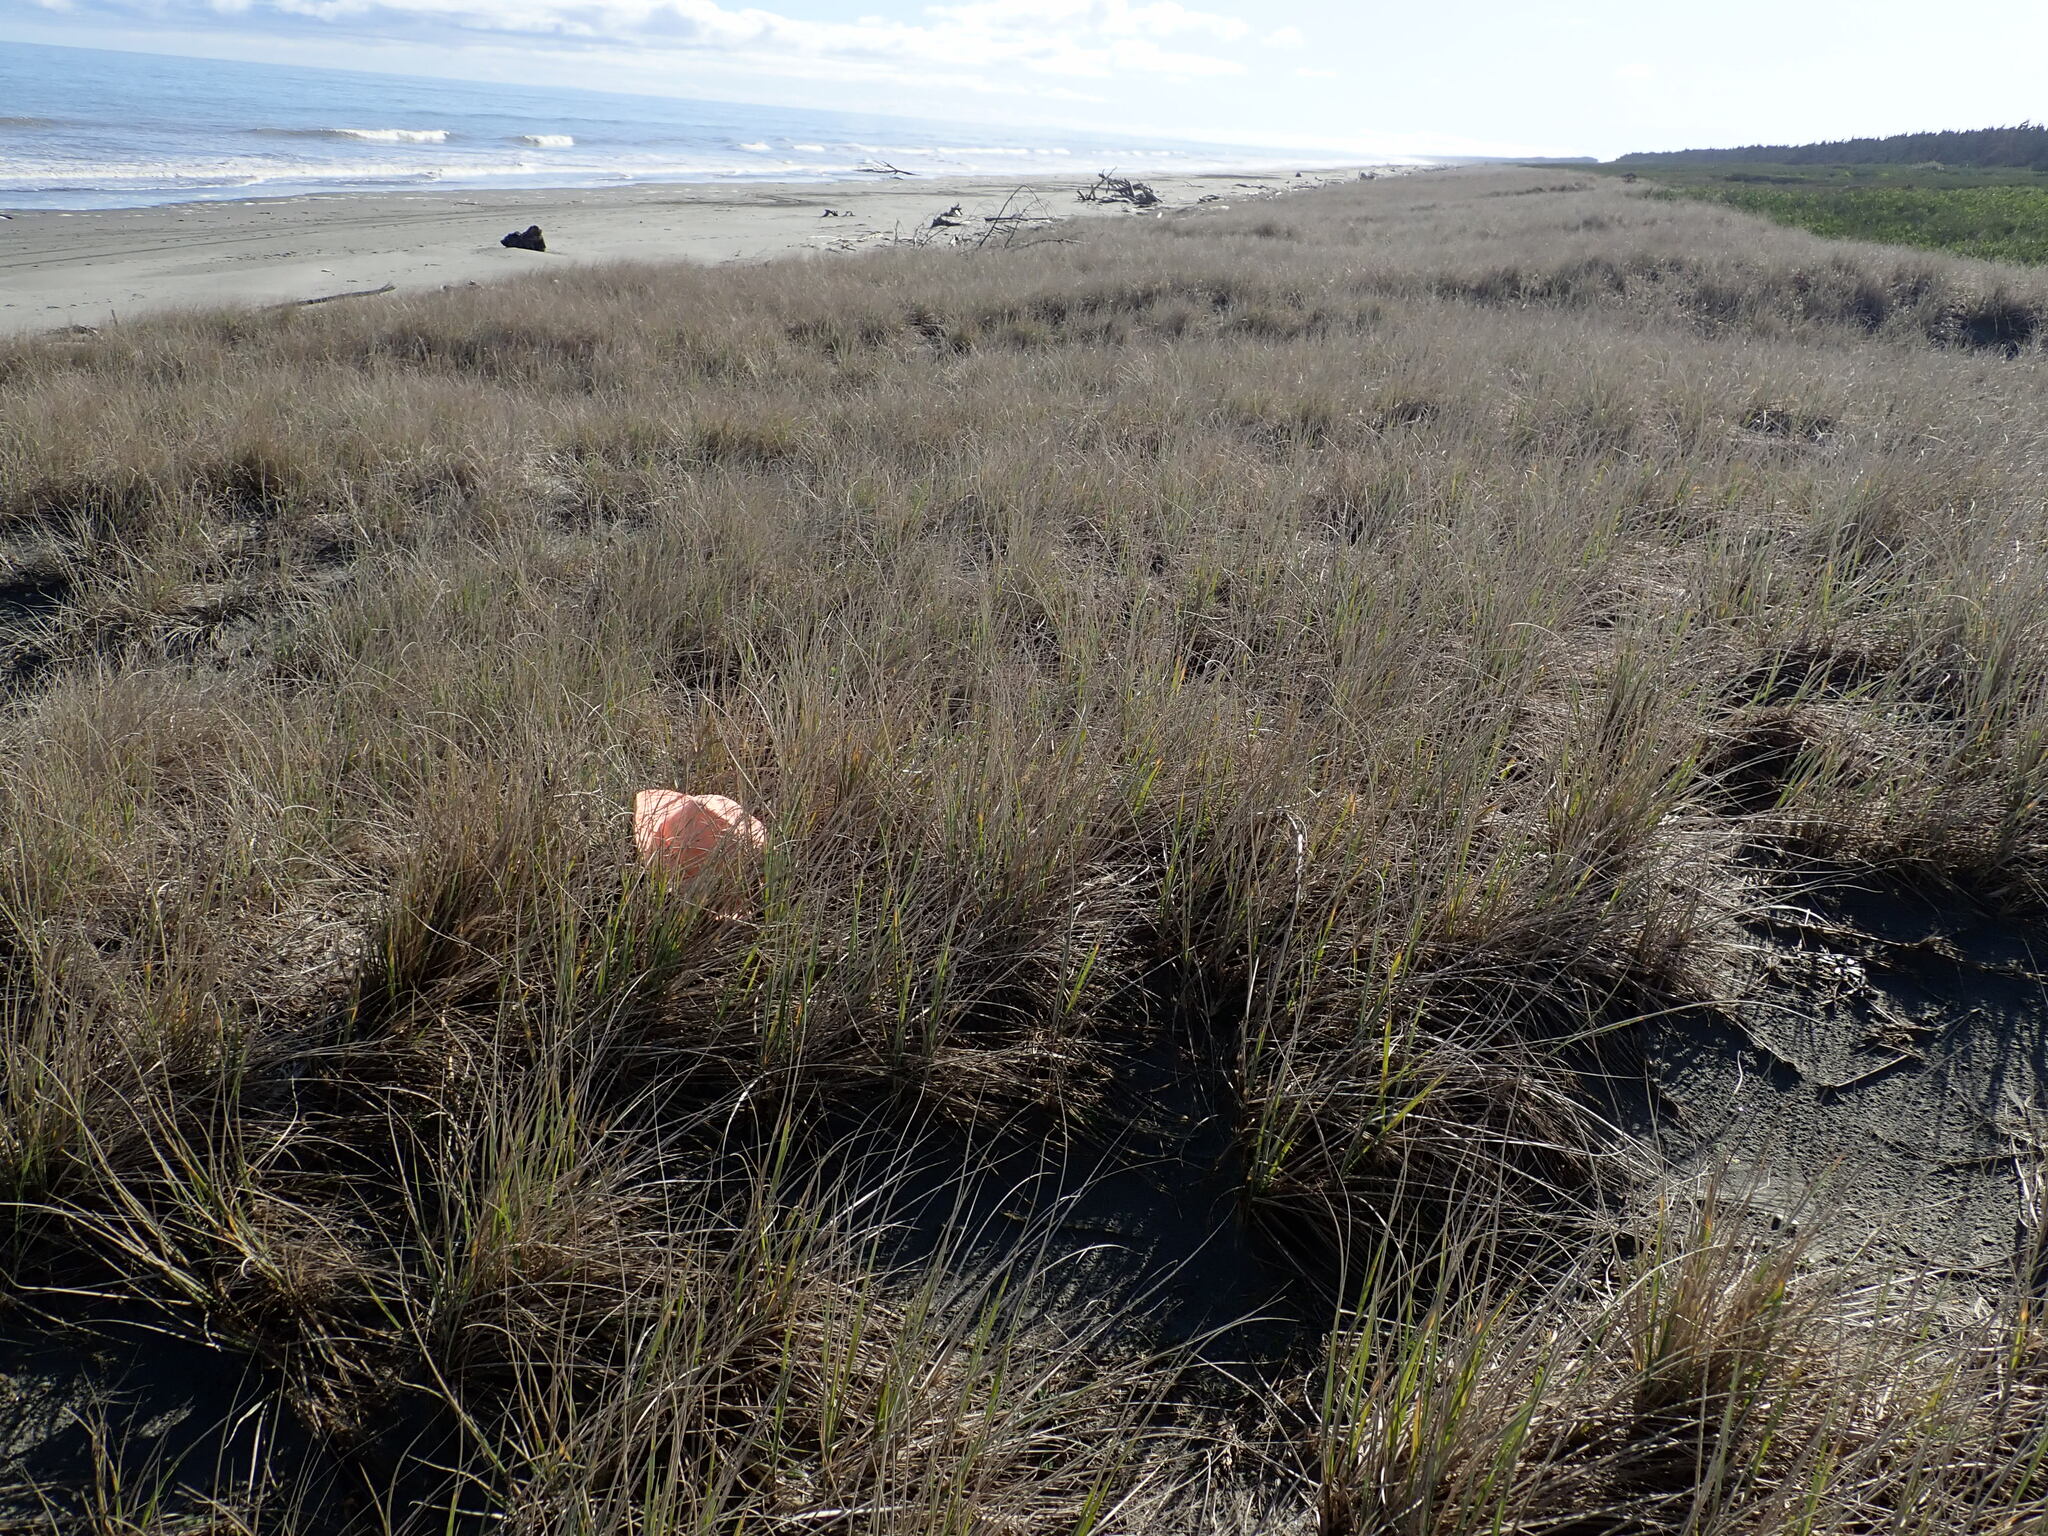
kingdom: Animalia
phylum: Arthropoda
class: Arachnida
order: Araneae
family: Theridiidae
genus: Latrodectus
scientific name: Latrodectus katipo
